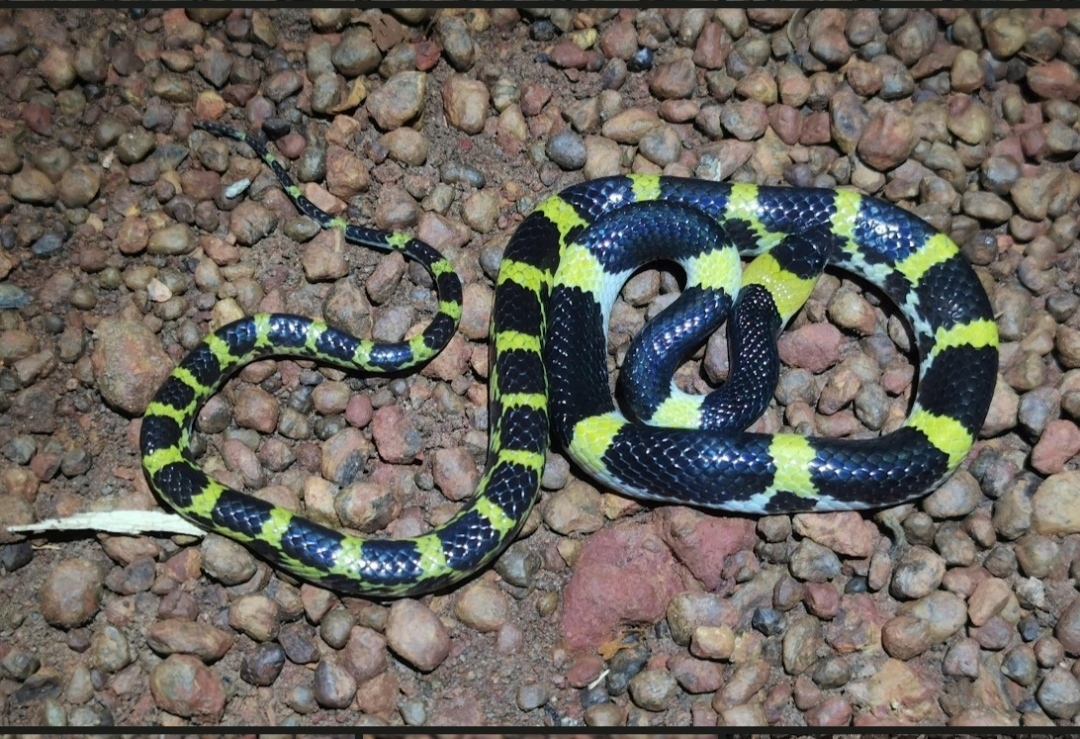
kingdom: Animalia
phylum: Chordata
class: Squamata
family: Colubridae
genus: Lycodon
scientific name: Lycodon laoensis
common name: Laotian wolf snake
